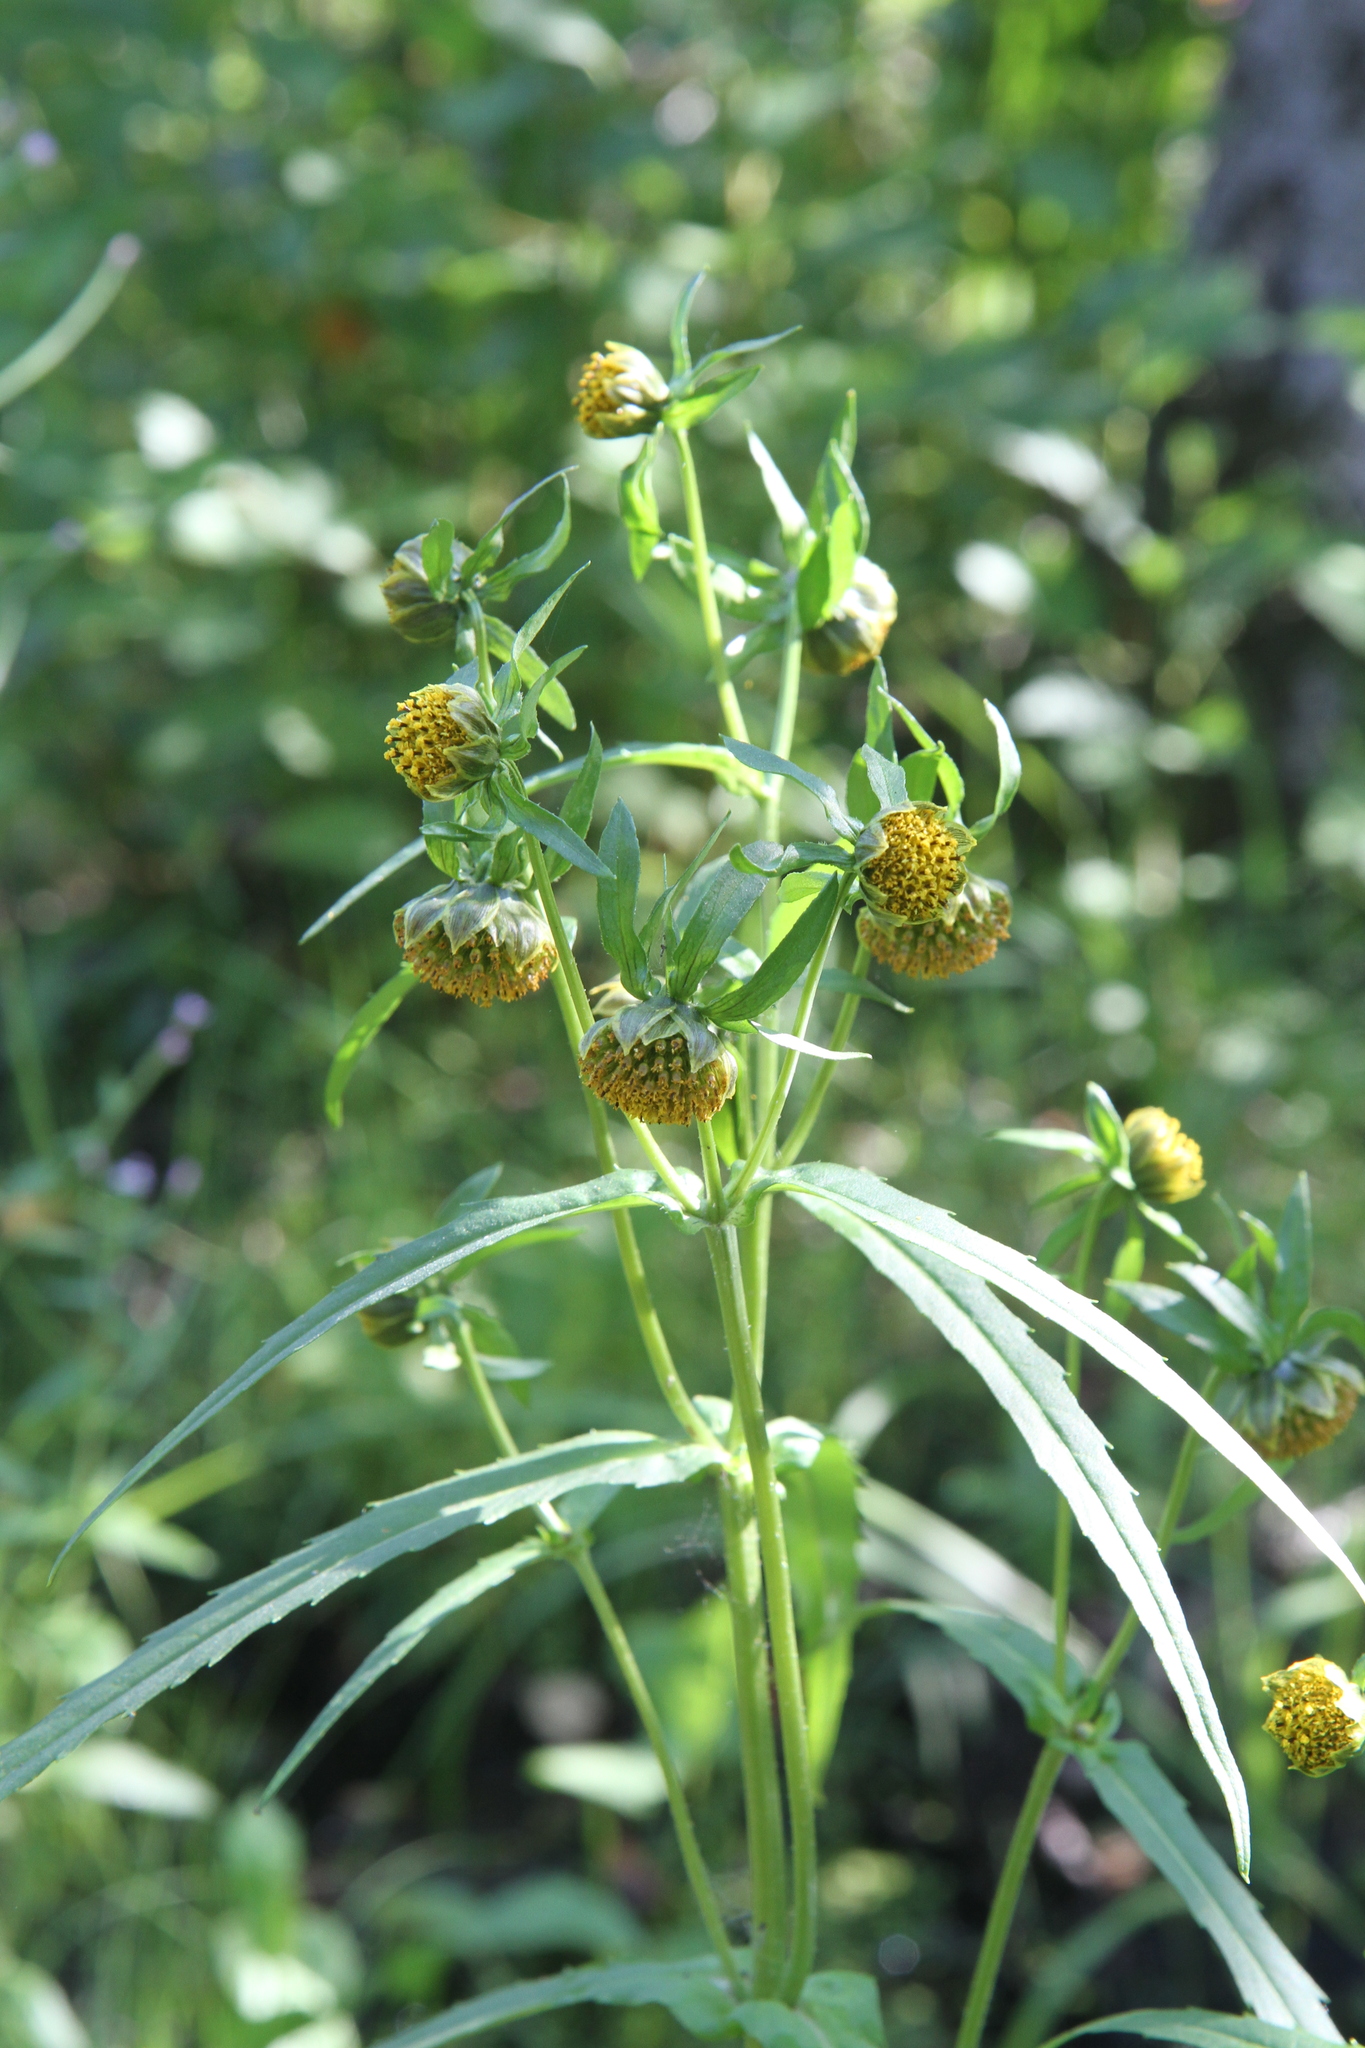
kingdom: Plantae
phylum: Tracheophyta
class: Magnoliopsida
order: Asterales
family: Asteraceae
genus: Bidens
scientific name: Bidens cernua
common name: Nodding bur-marigold
